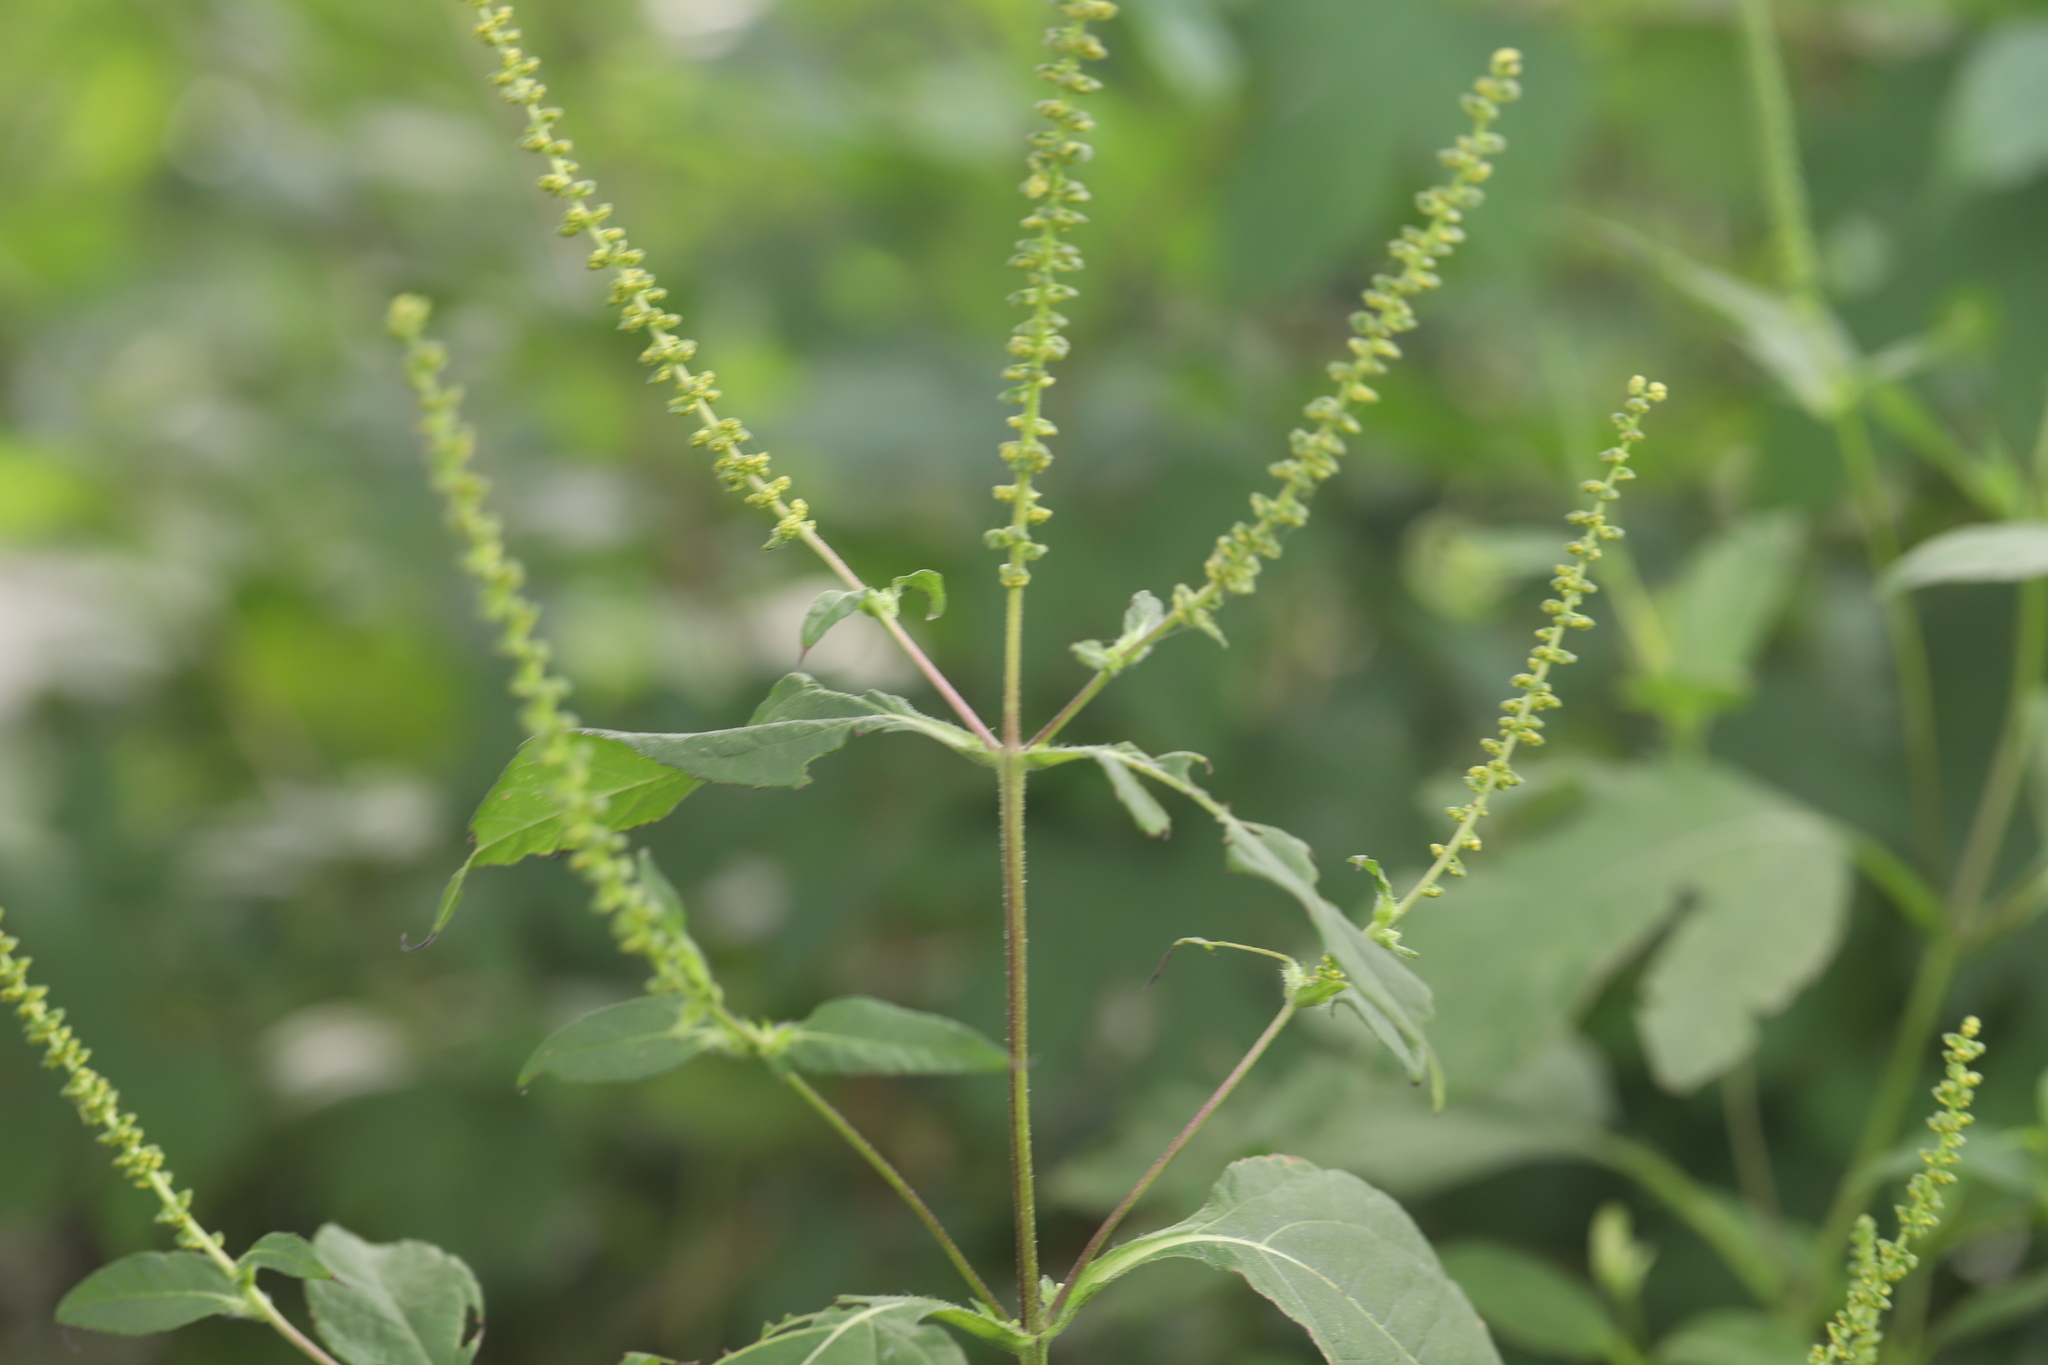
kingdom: Plantae
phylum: Tracheophyta
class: Magnoliopsida
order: Asterales
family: Asteraceae
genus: Ambrosia
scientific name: Ambrosia trifida
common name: Giant ragweed
